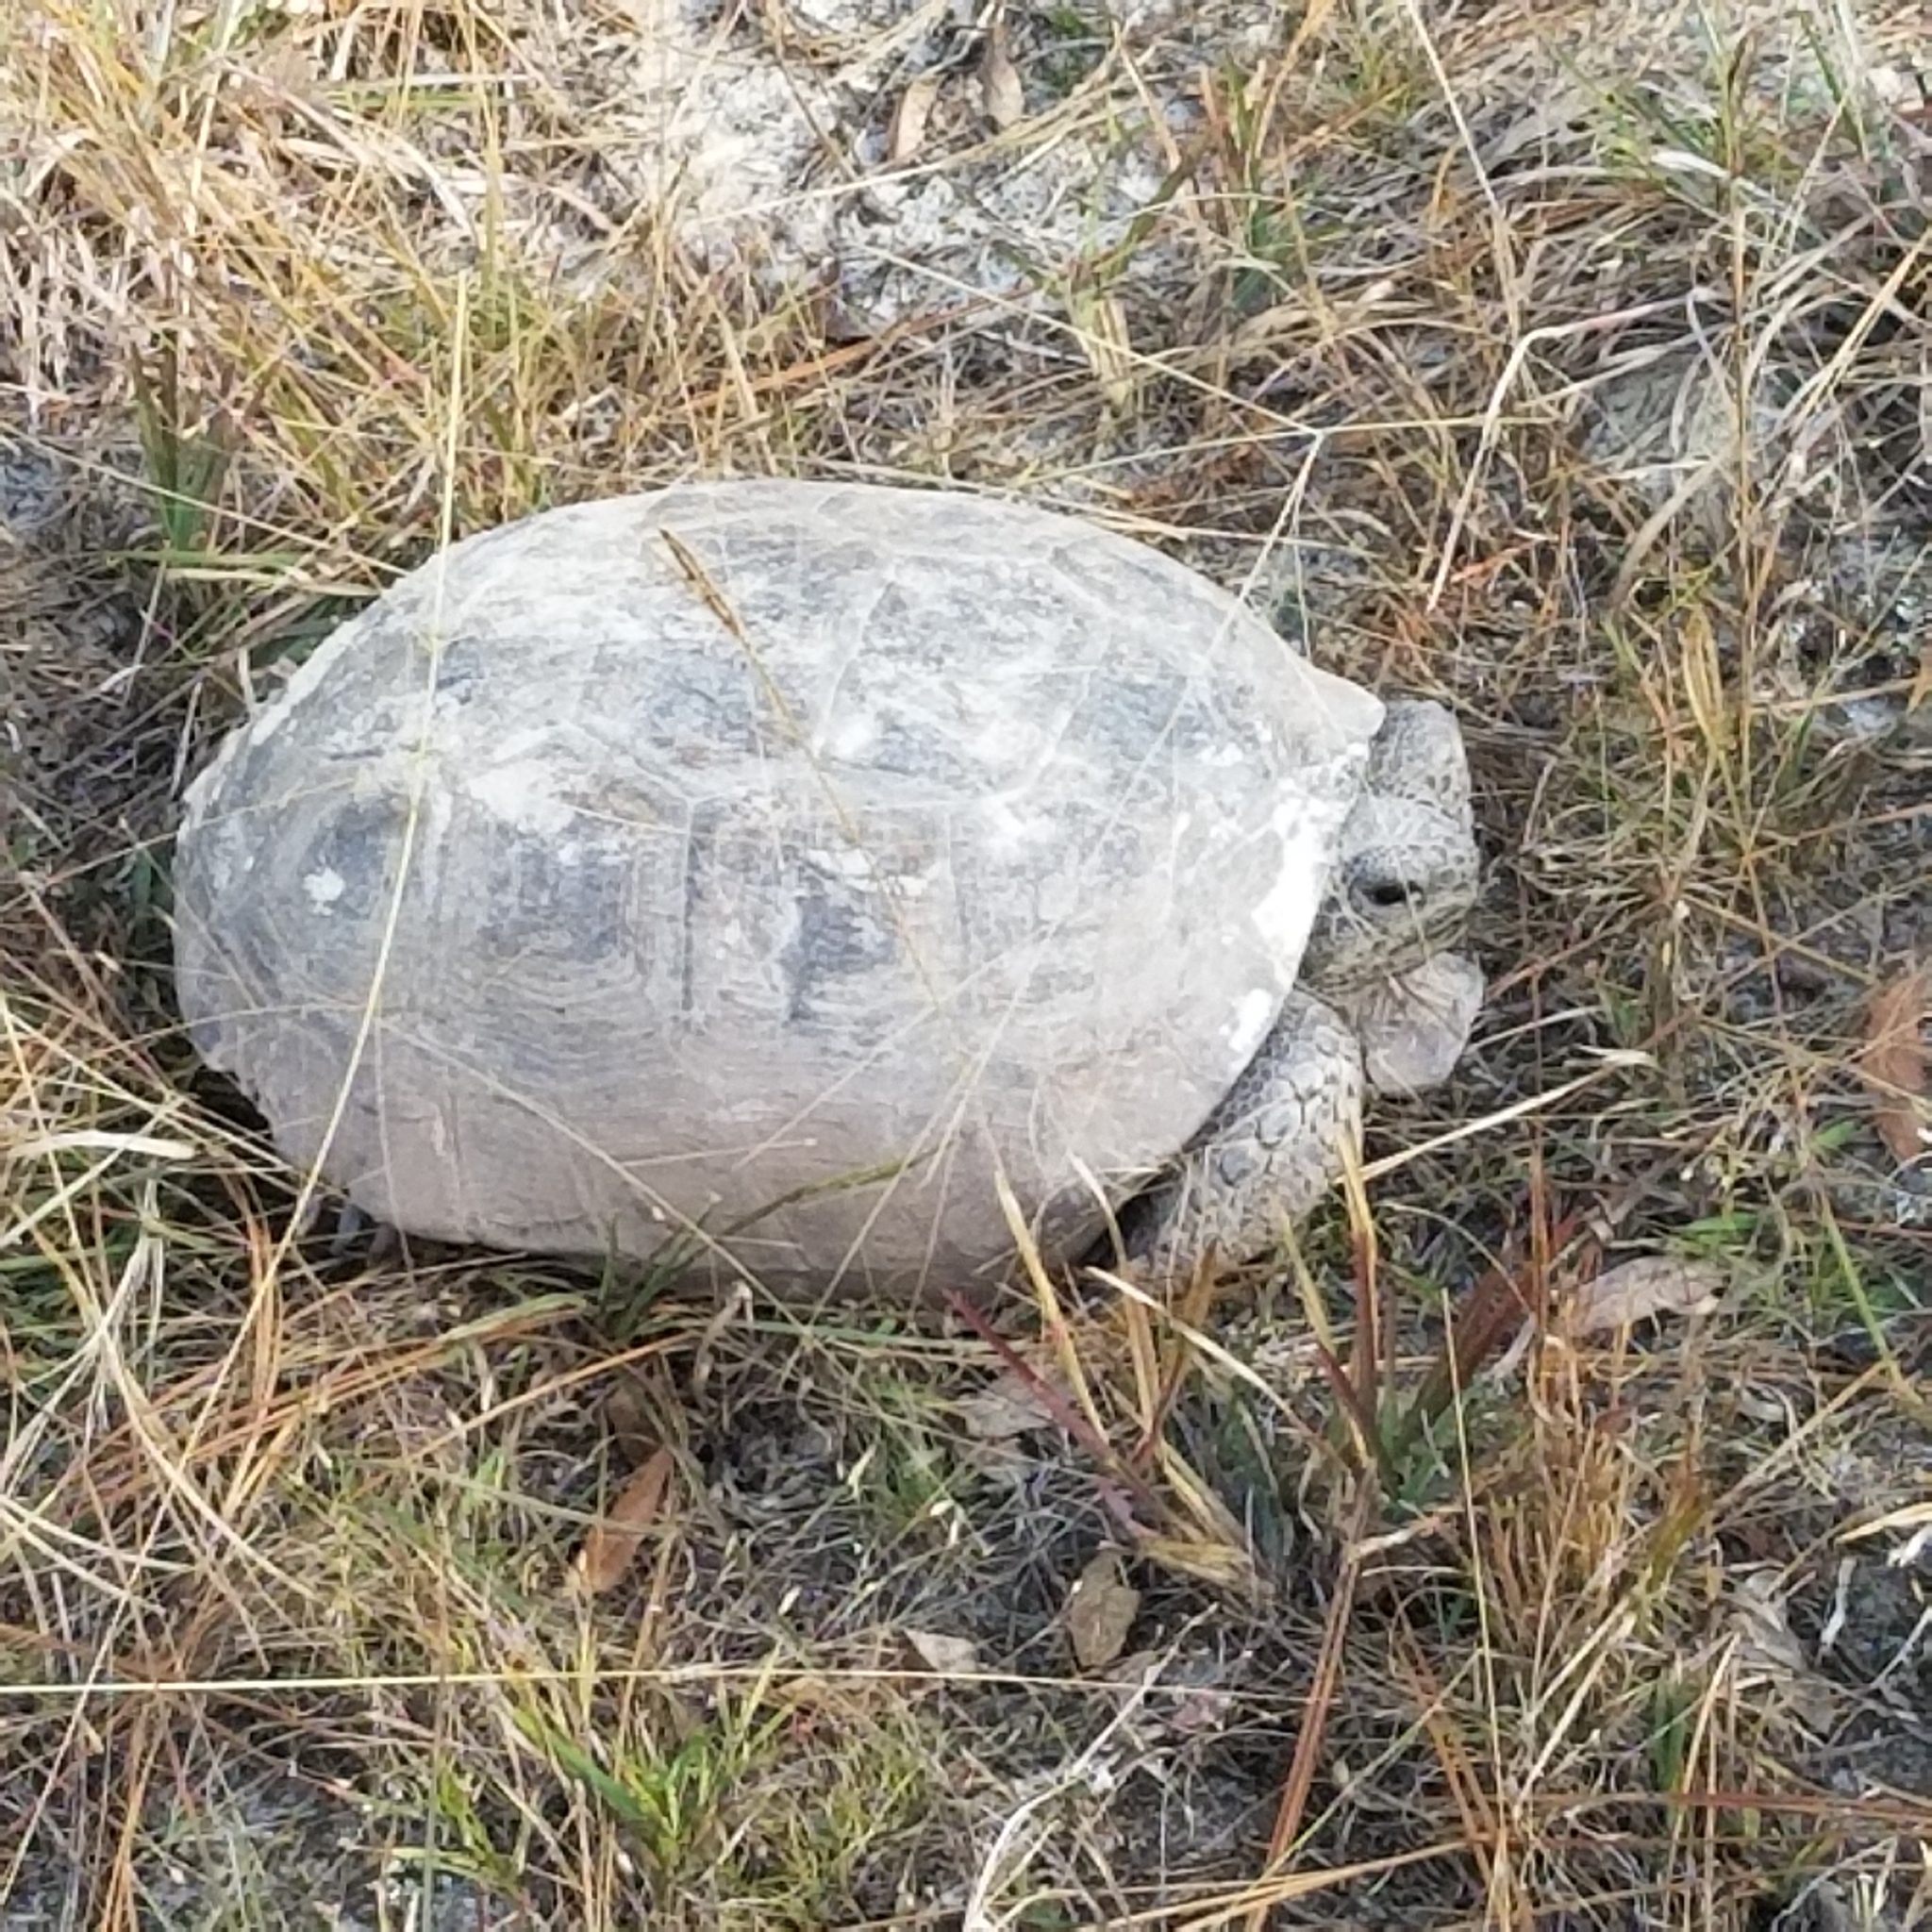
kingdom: Animalia
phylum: Chordata
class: Testudines
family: Testudinidae
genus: Gopherus
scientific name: Gopherus polyphemus
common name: Florida gopher tortoise
